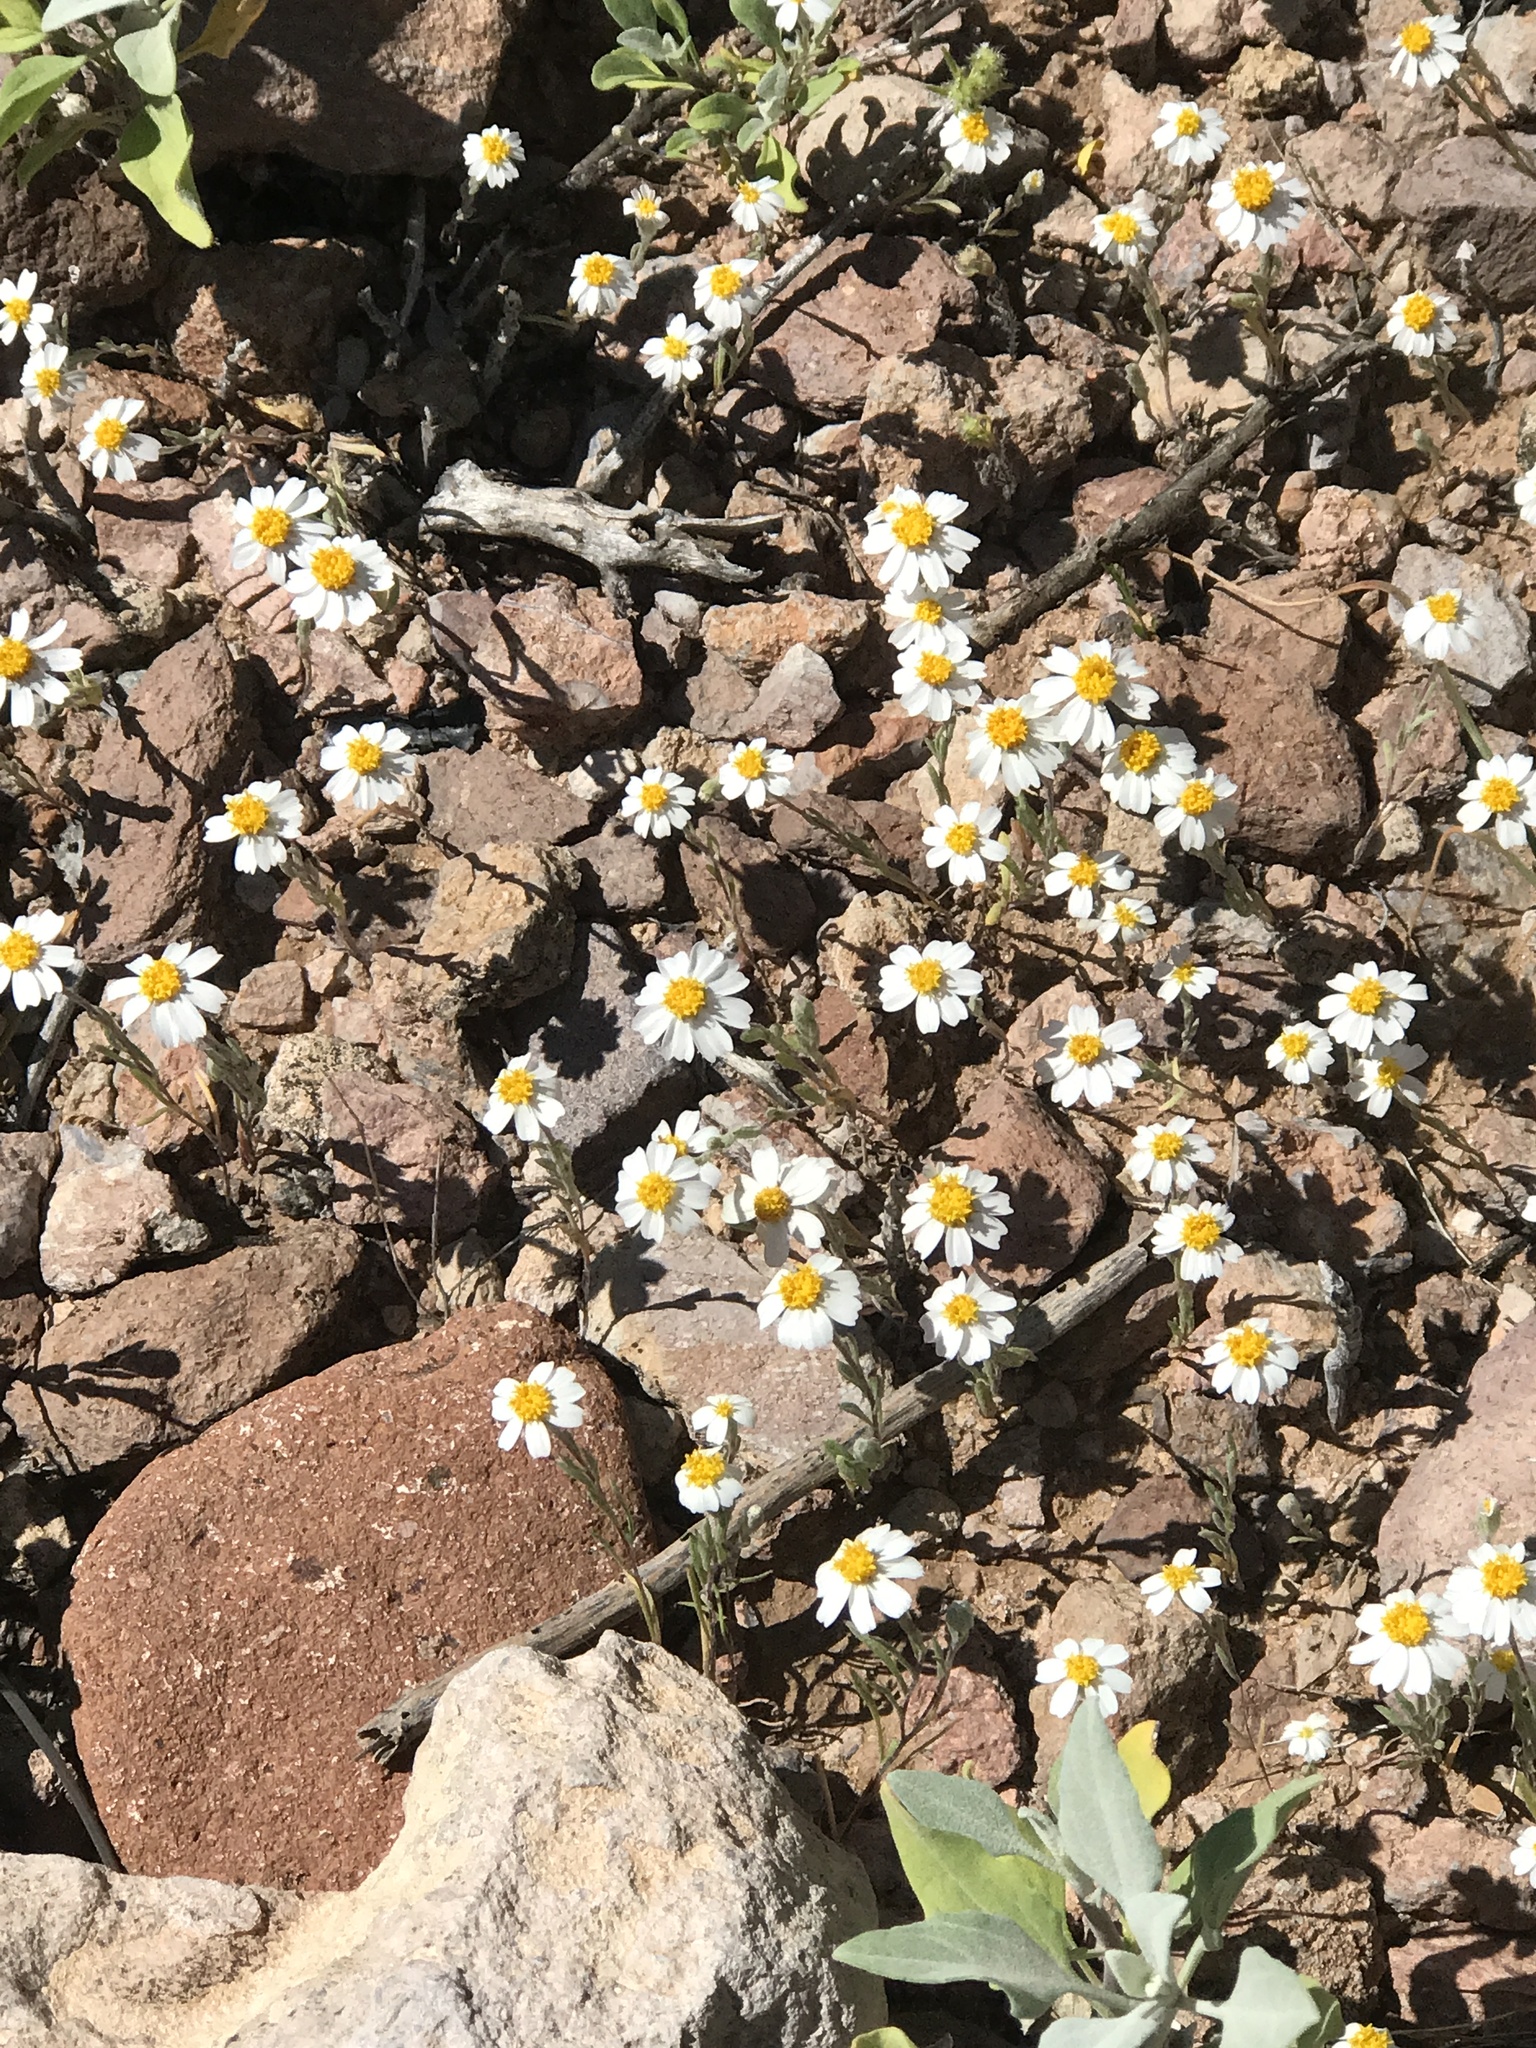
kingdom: Plantae
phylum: Tracheophyta
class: Magnoliopsida
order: Asterales
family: Asteraceae
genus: Eriophyllum
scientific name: Eriophyllum lanosum
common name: White easter-bonnets
